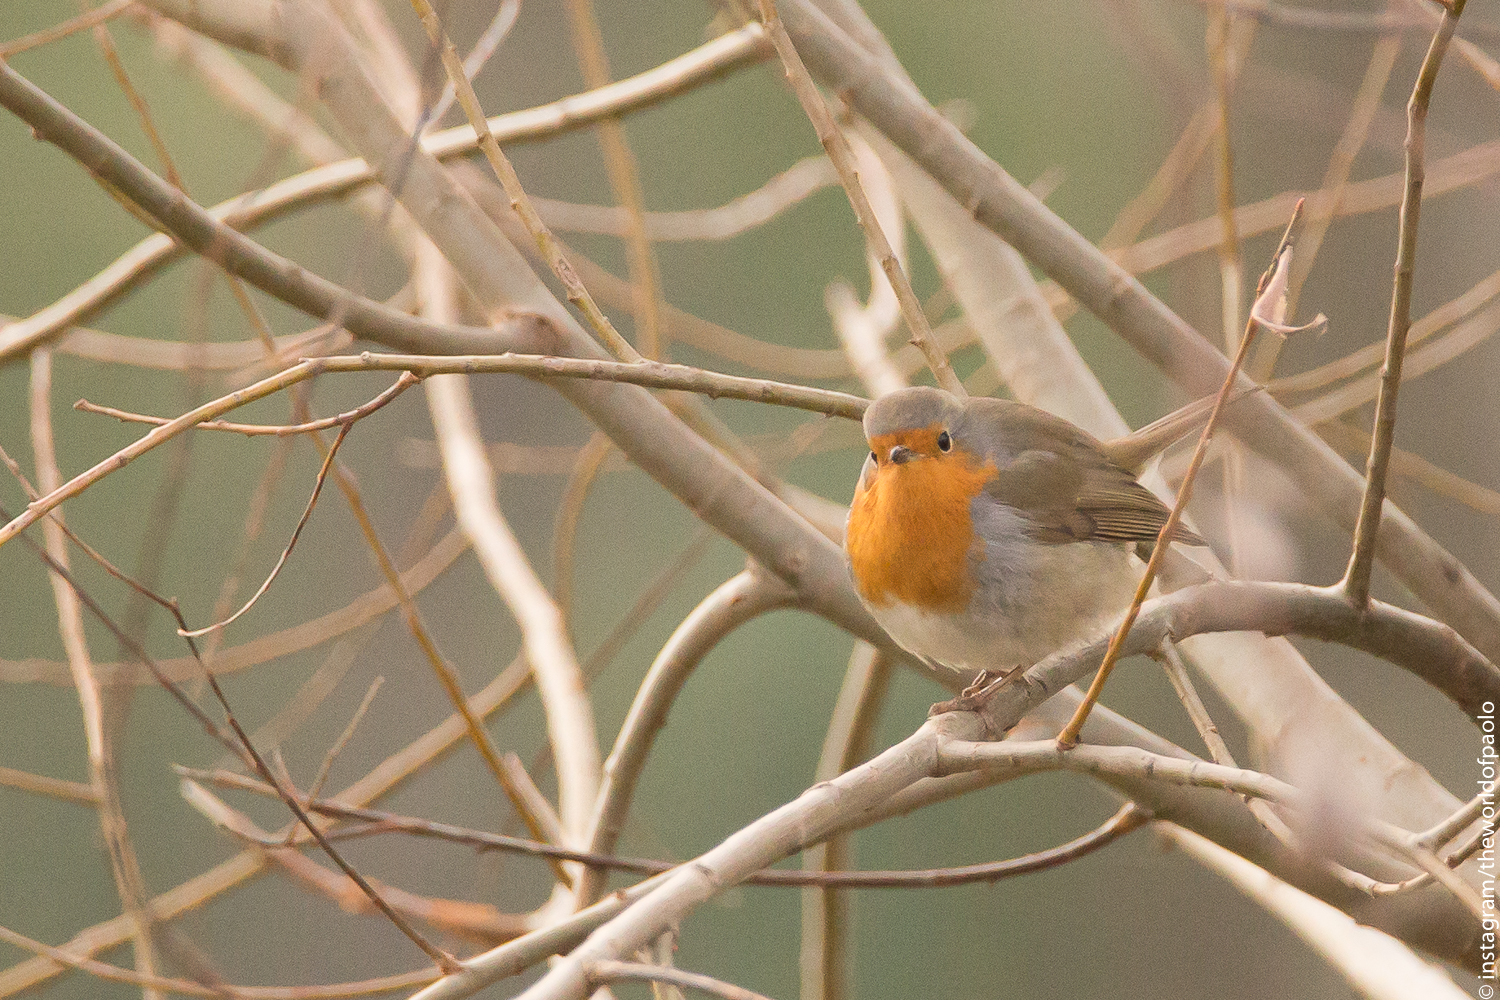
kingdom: Animalia
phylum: Chordata
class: Aves
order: Passeriformes
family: Muscicapidae
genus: Erithacus
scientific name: Erithacus rubecula
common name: European robin
